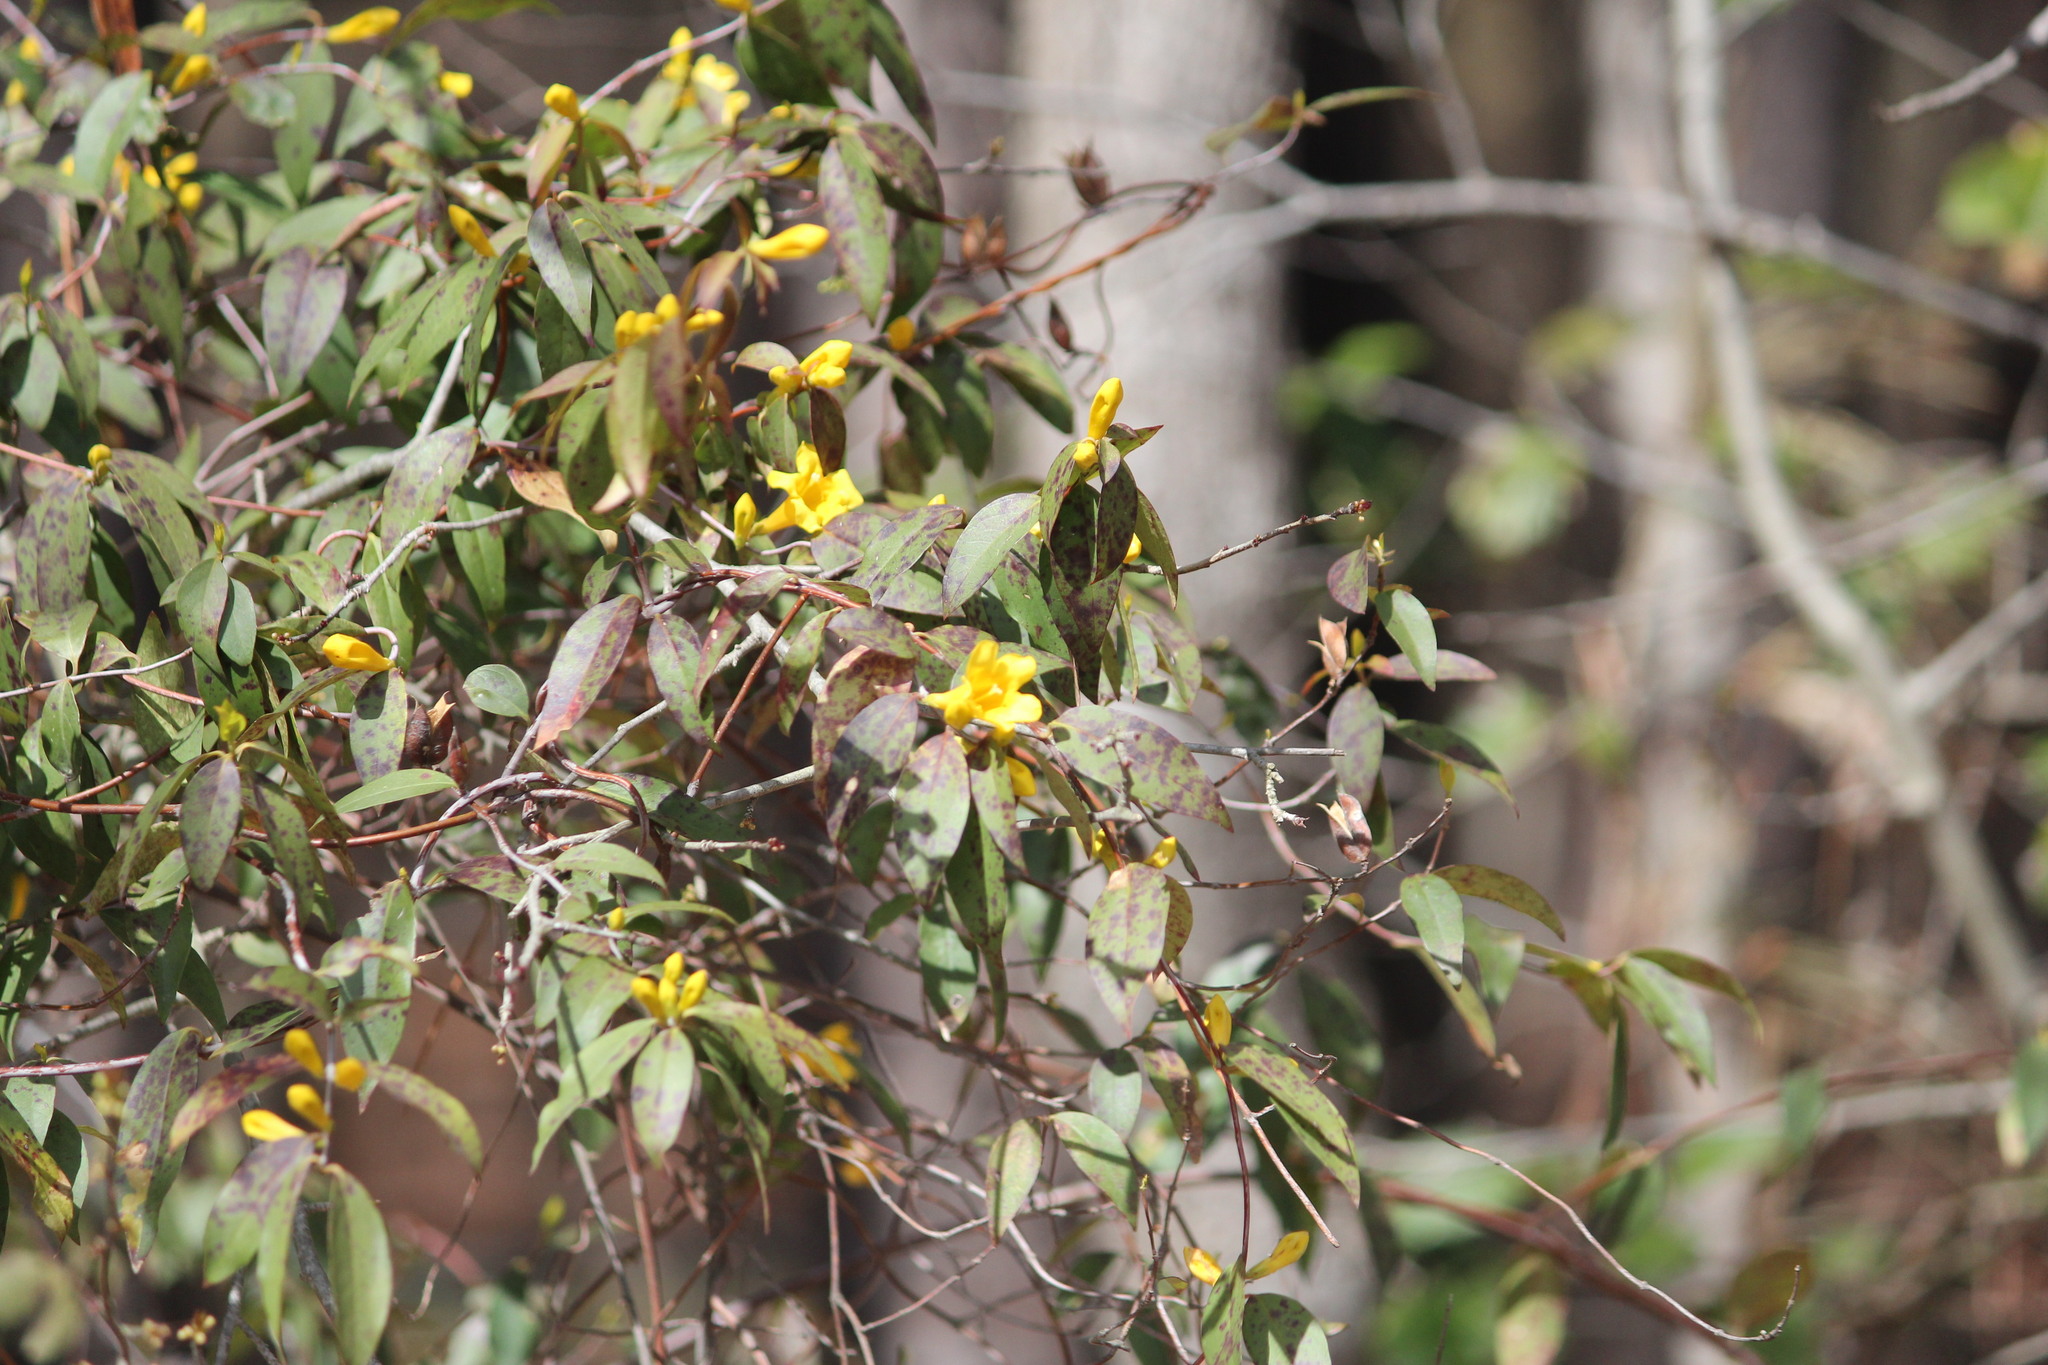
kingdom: Plantae
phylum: Tracheophyta
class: Magnoliopsida
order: Gentianales
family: Gelsemiaceae
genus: Gelsemium
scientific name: Gelsemium sempervirens
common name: Carolina-jasmine
